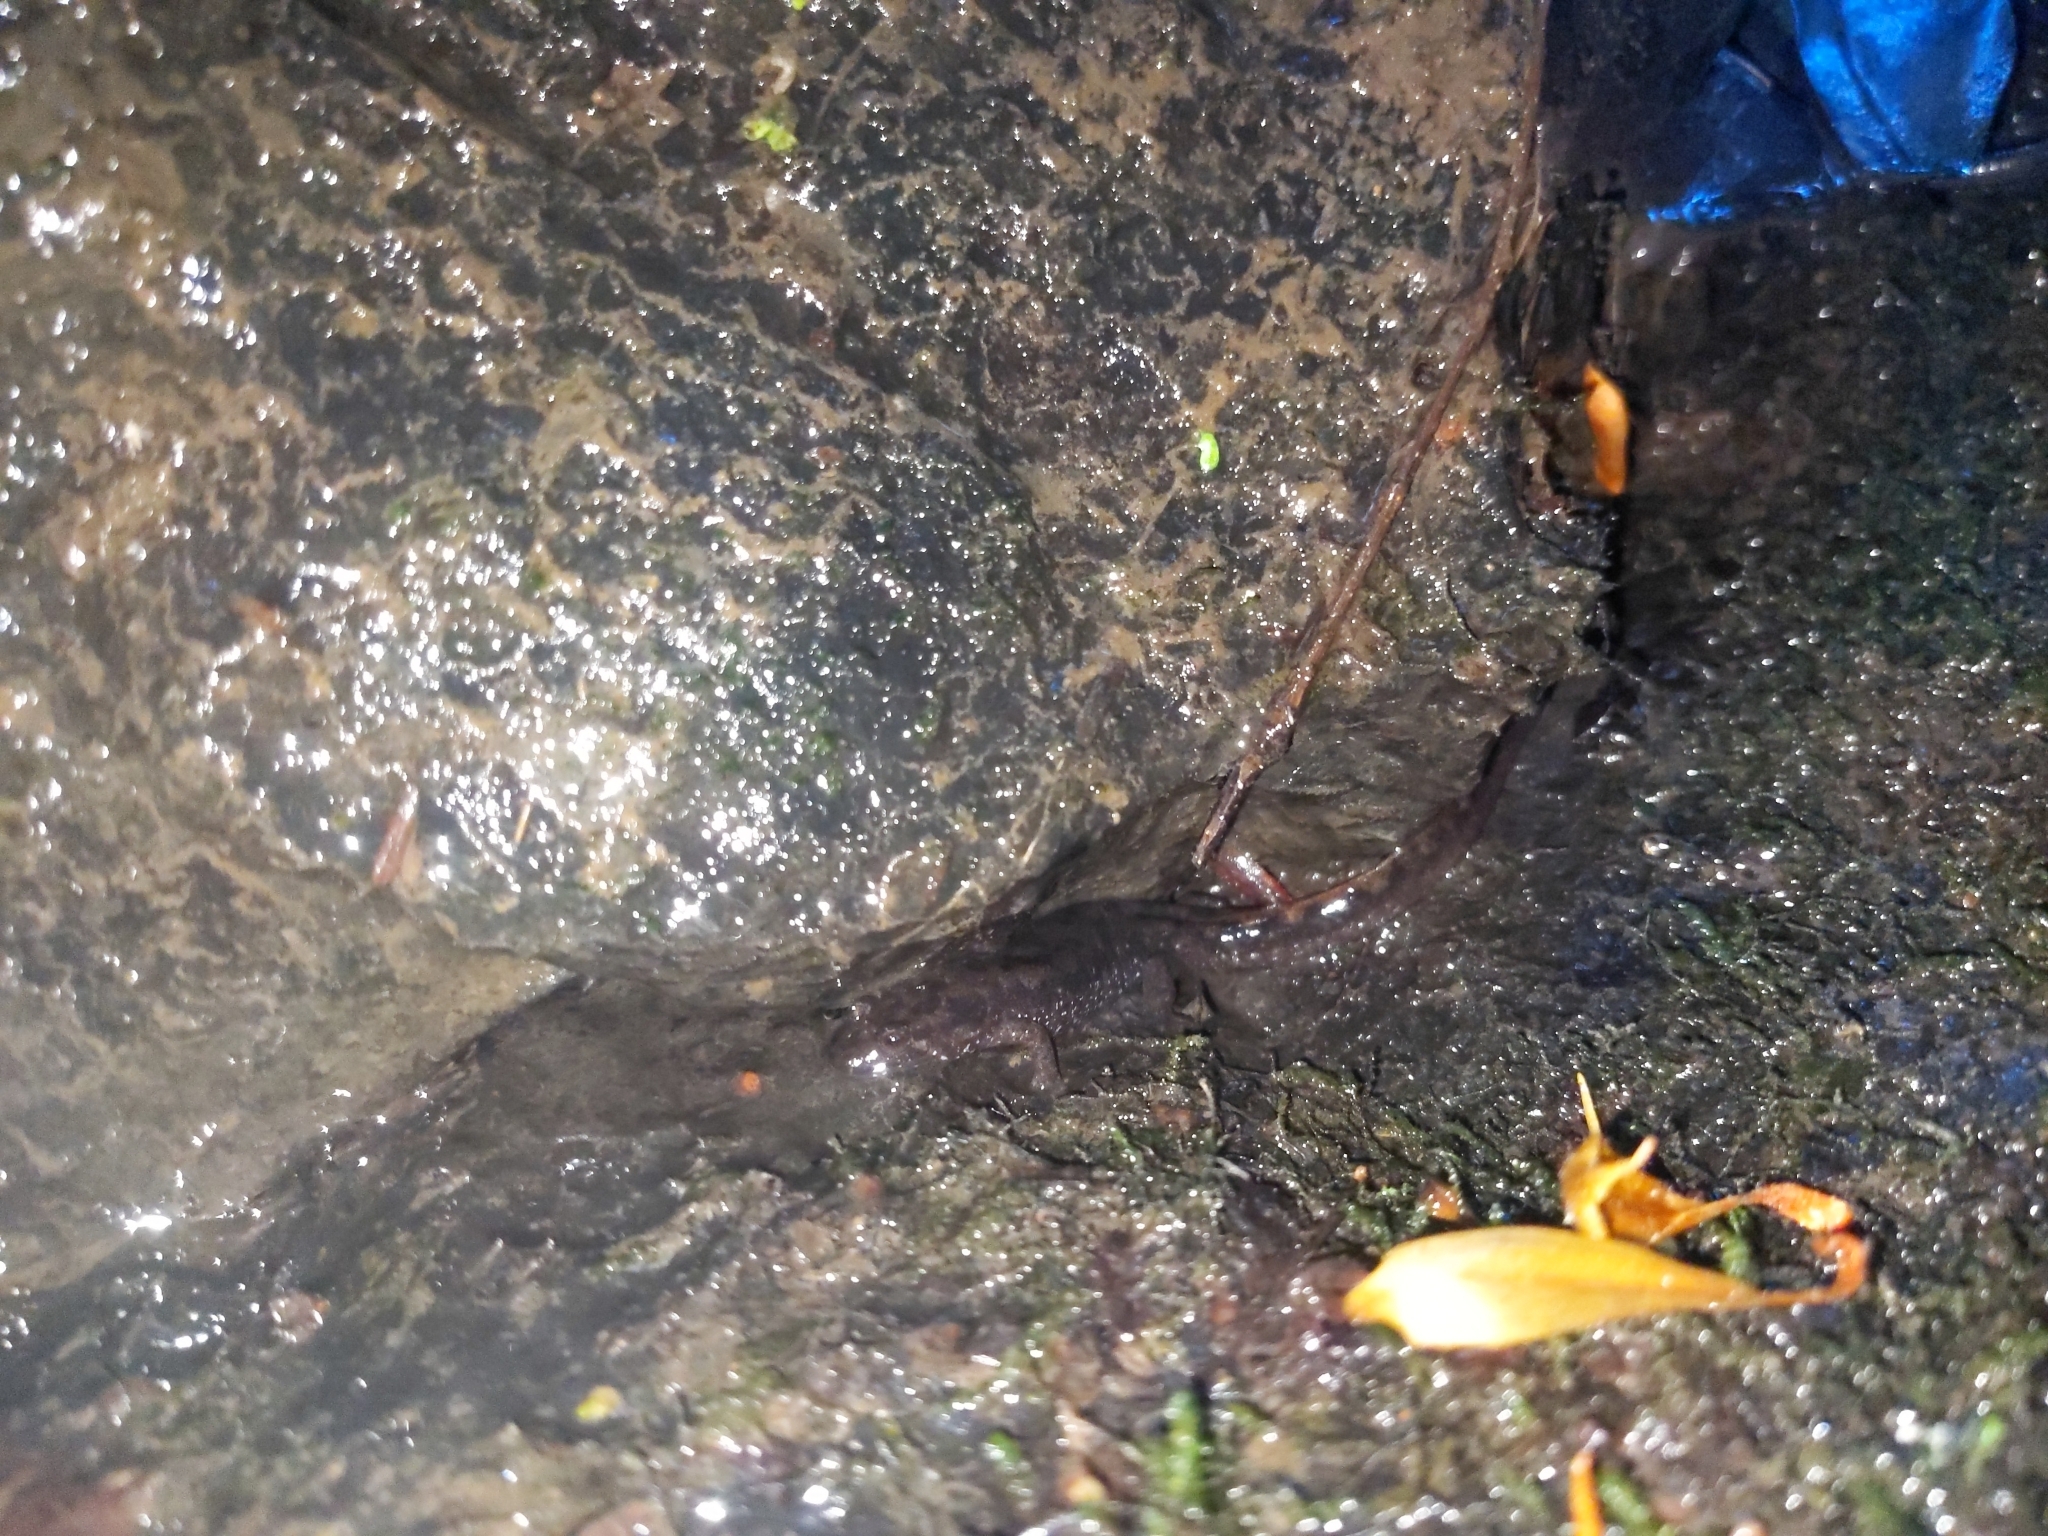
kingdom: Animalia
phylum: Chordata
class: Amphibia
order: Caudata
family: Plethodontidae
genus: Desmognathus
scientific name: Desmognathus monticola
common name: Seal salamander
